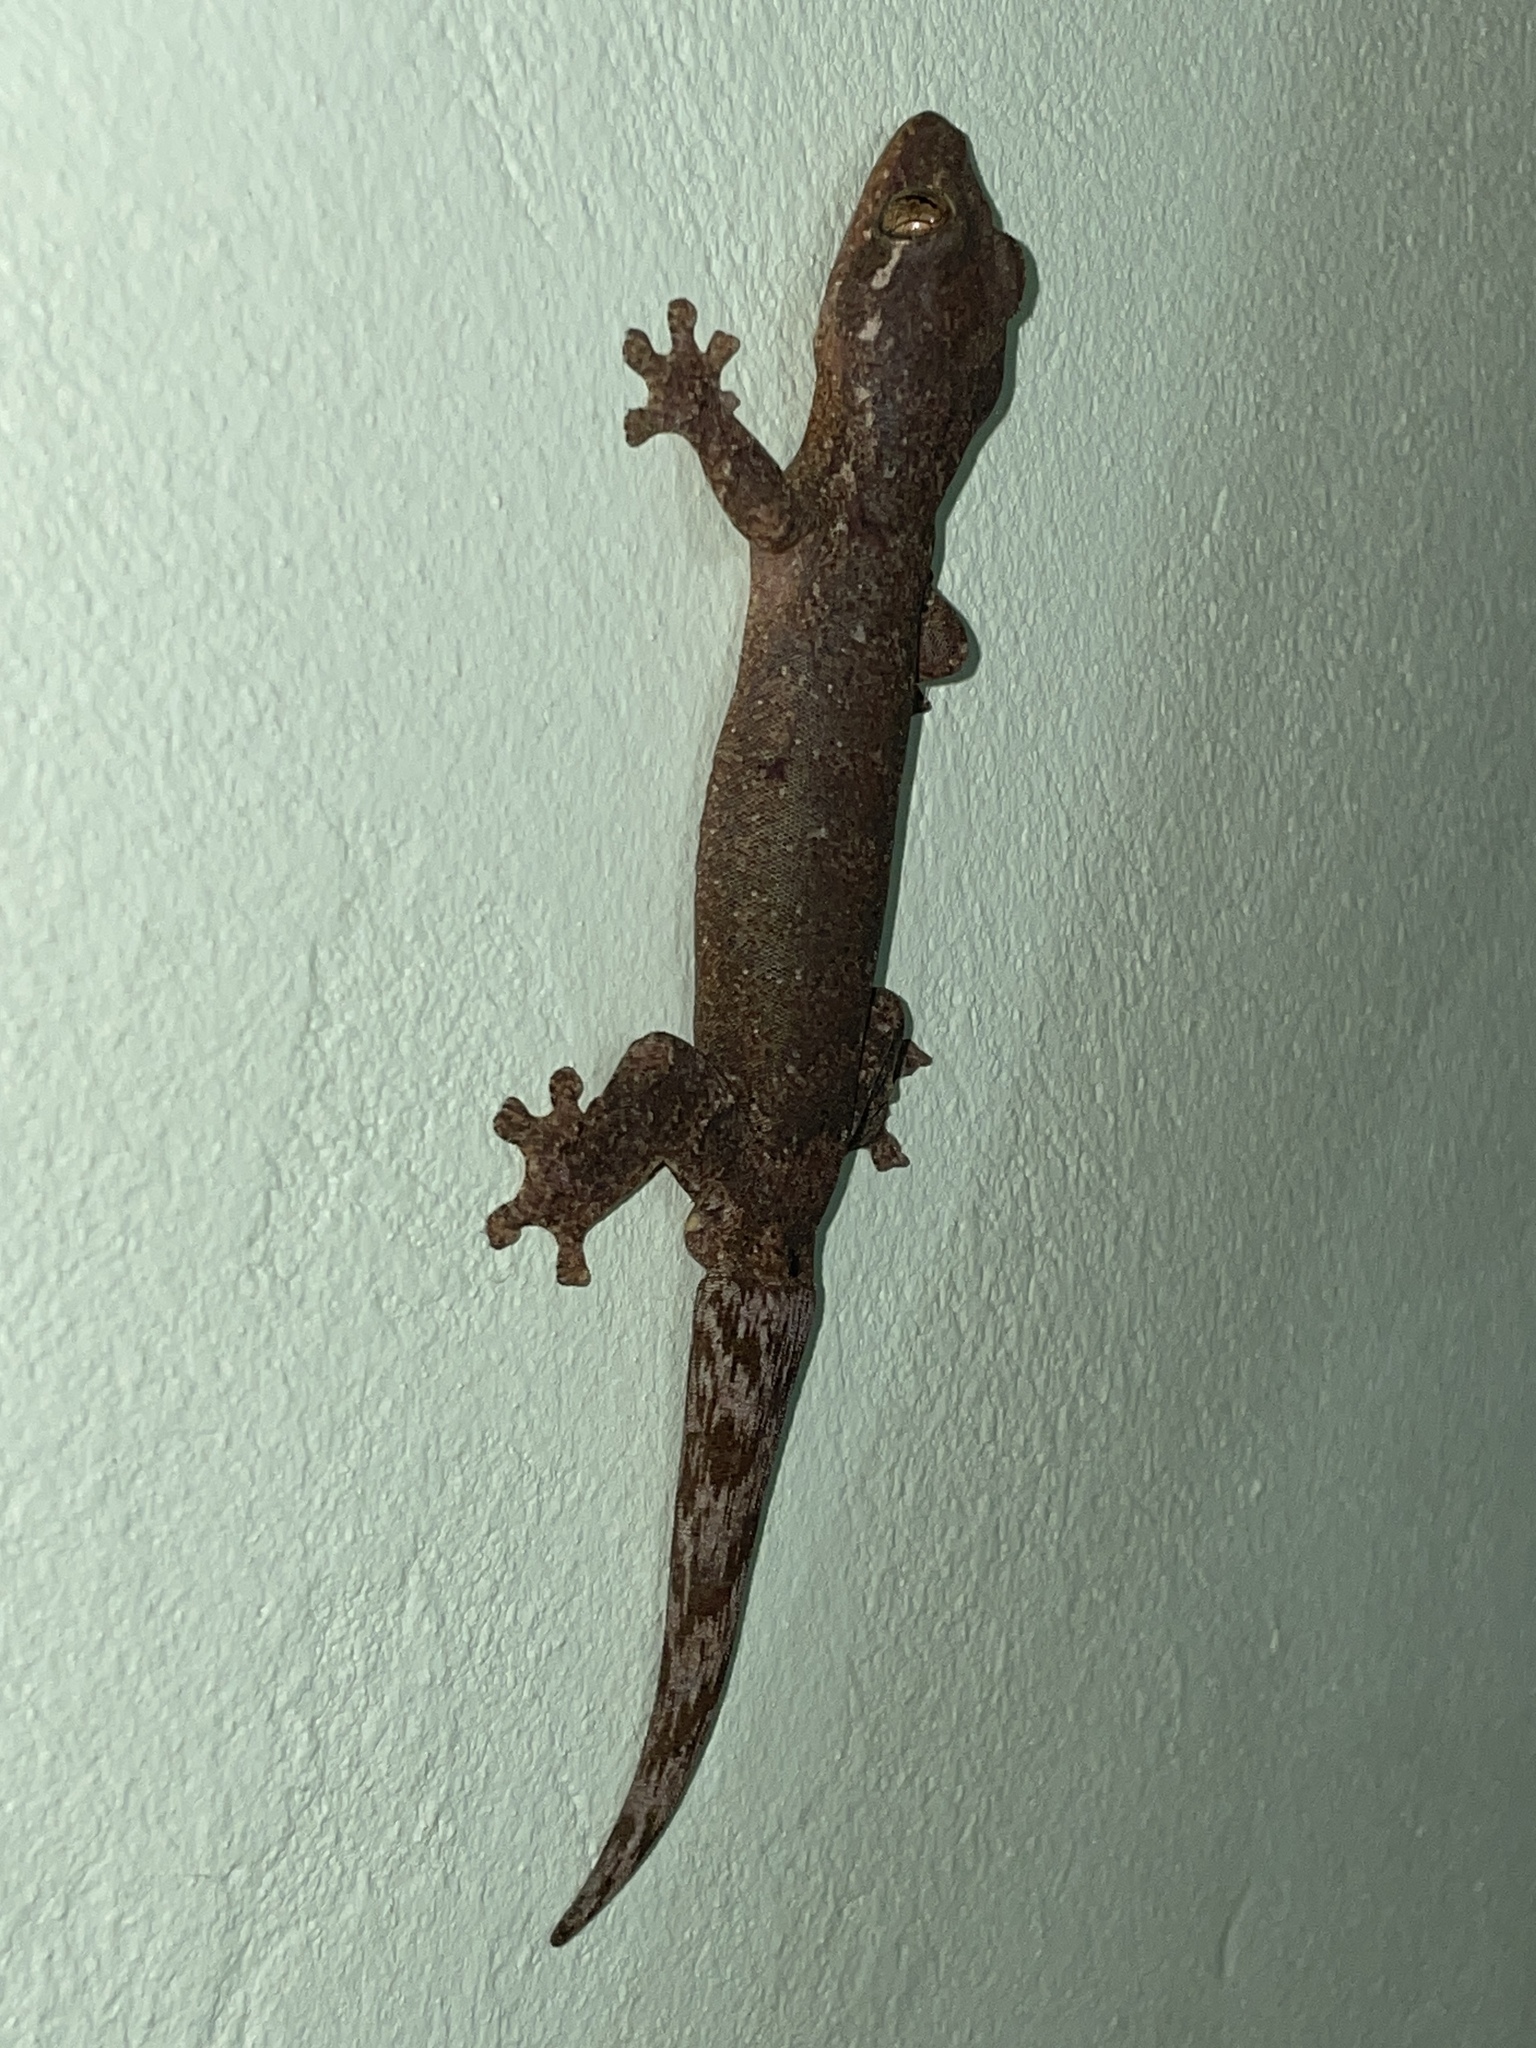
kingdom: Animalia
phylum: Chordata
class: Squamata
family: Phyllodactylidae
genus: Thecadactylus
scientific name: Thecadactylus rapicauda
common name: Turnip-tailed gecko
